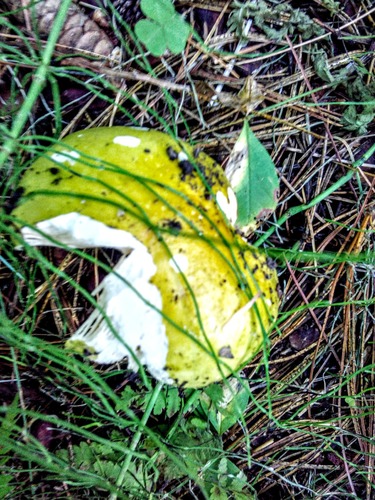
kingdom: Fungi
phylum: Basidiomycota
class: Agaricomycetes
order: Russulales
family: Russulaceae
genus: Russula
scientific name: Russula
